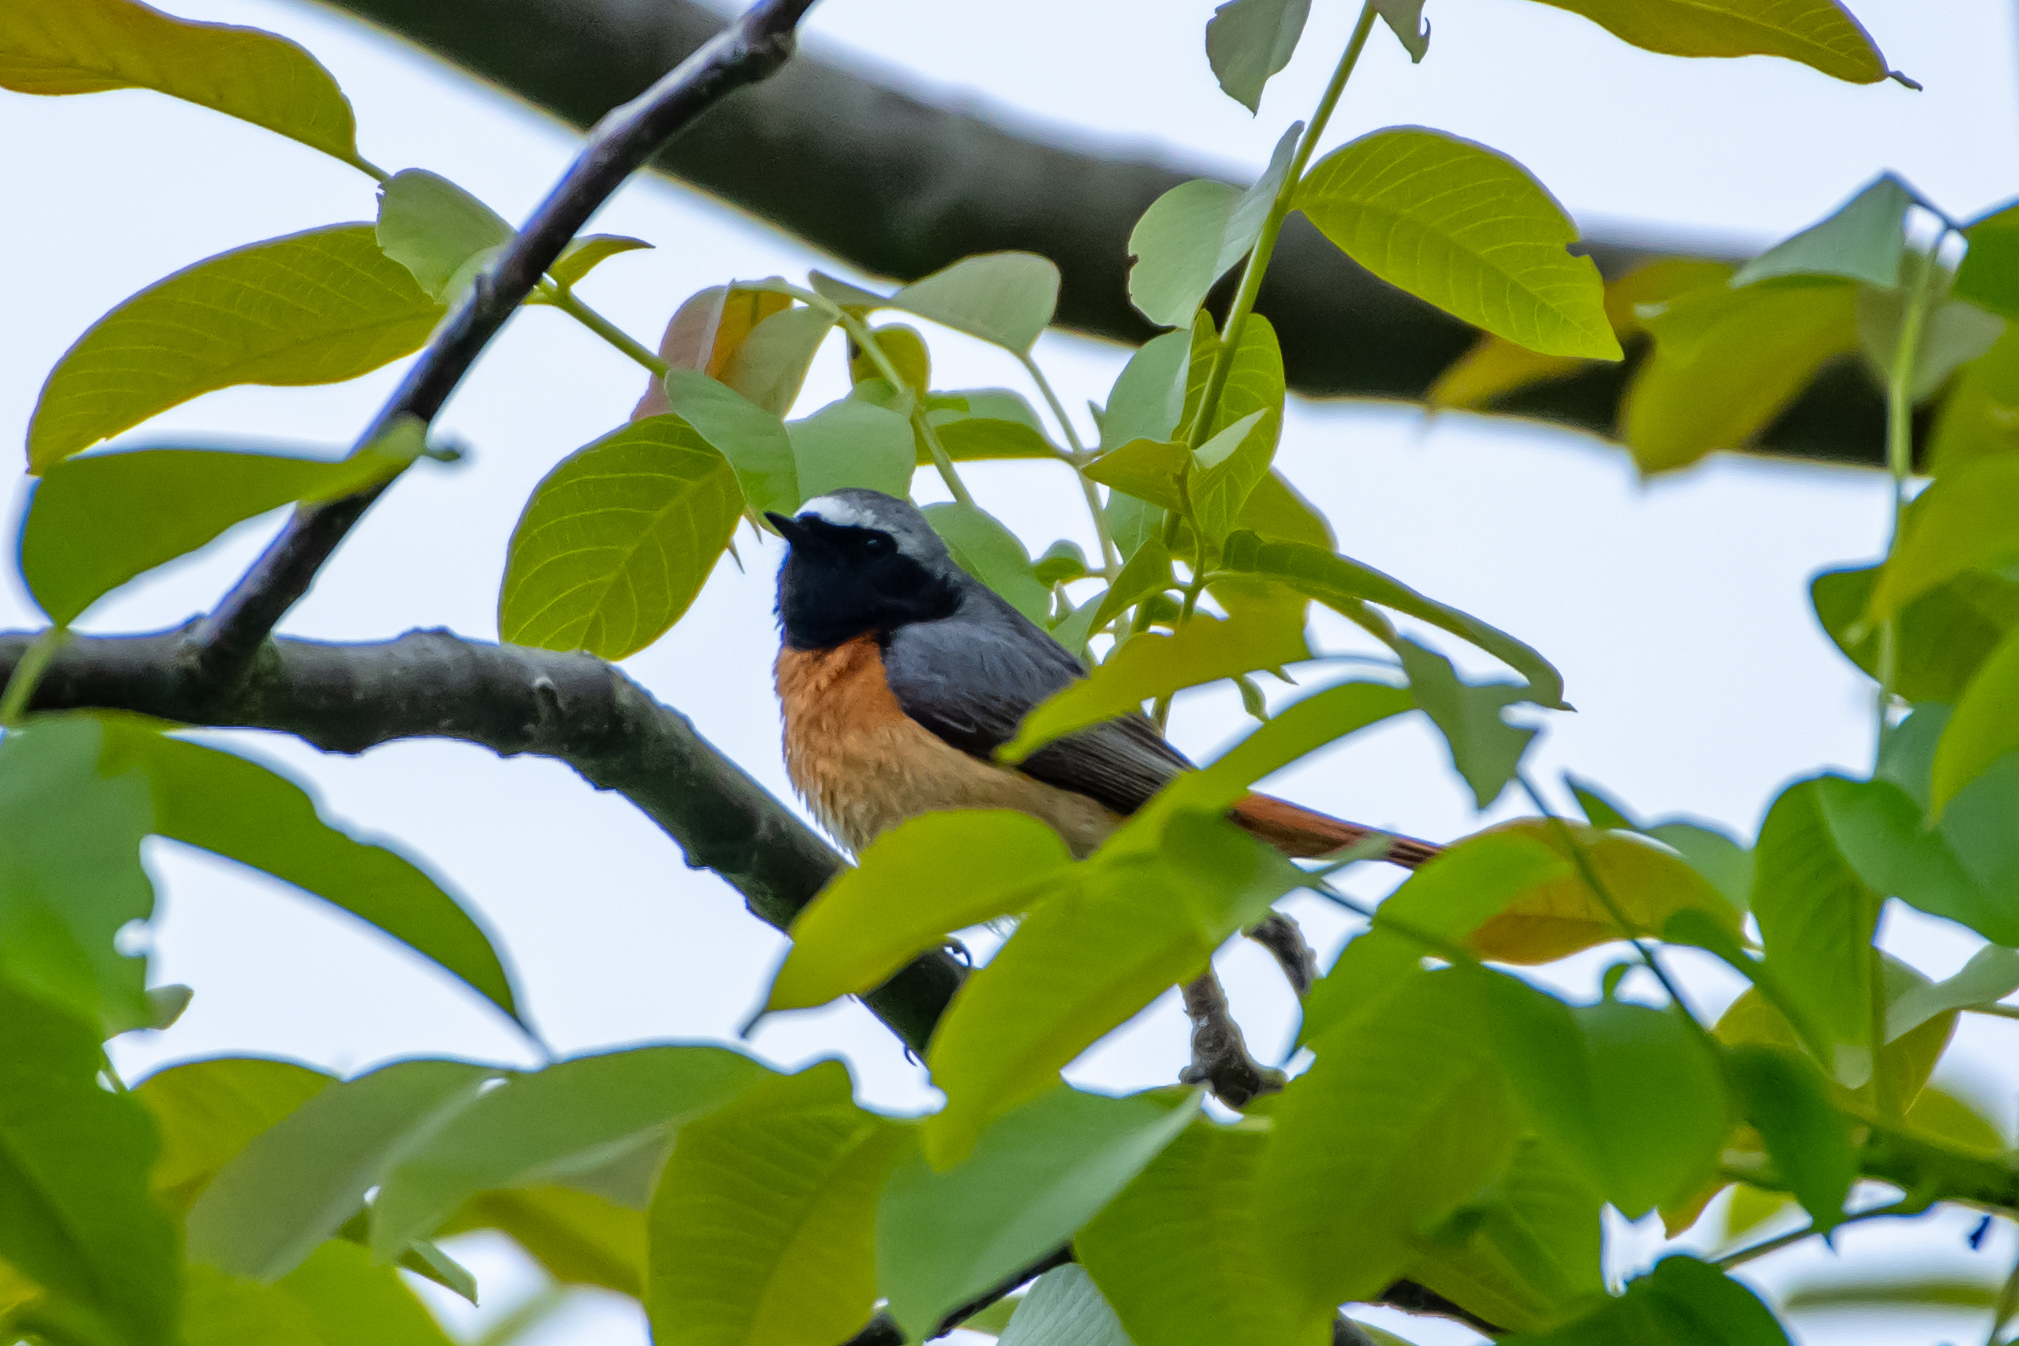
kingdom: Animalia
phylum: Chordata
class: Aves
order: Passeriformes
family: Muscicapidae
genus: Phoenicurus
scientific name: Phoenicurus phoenicurus
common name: Common redstart
